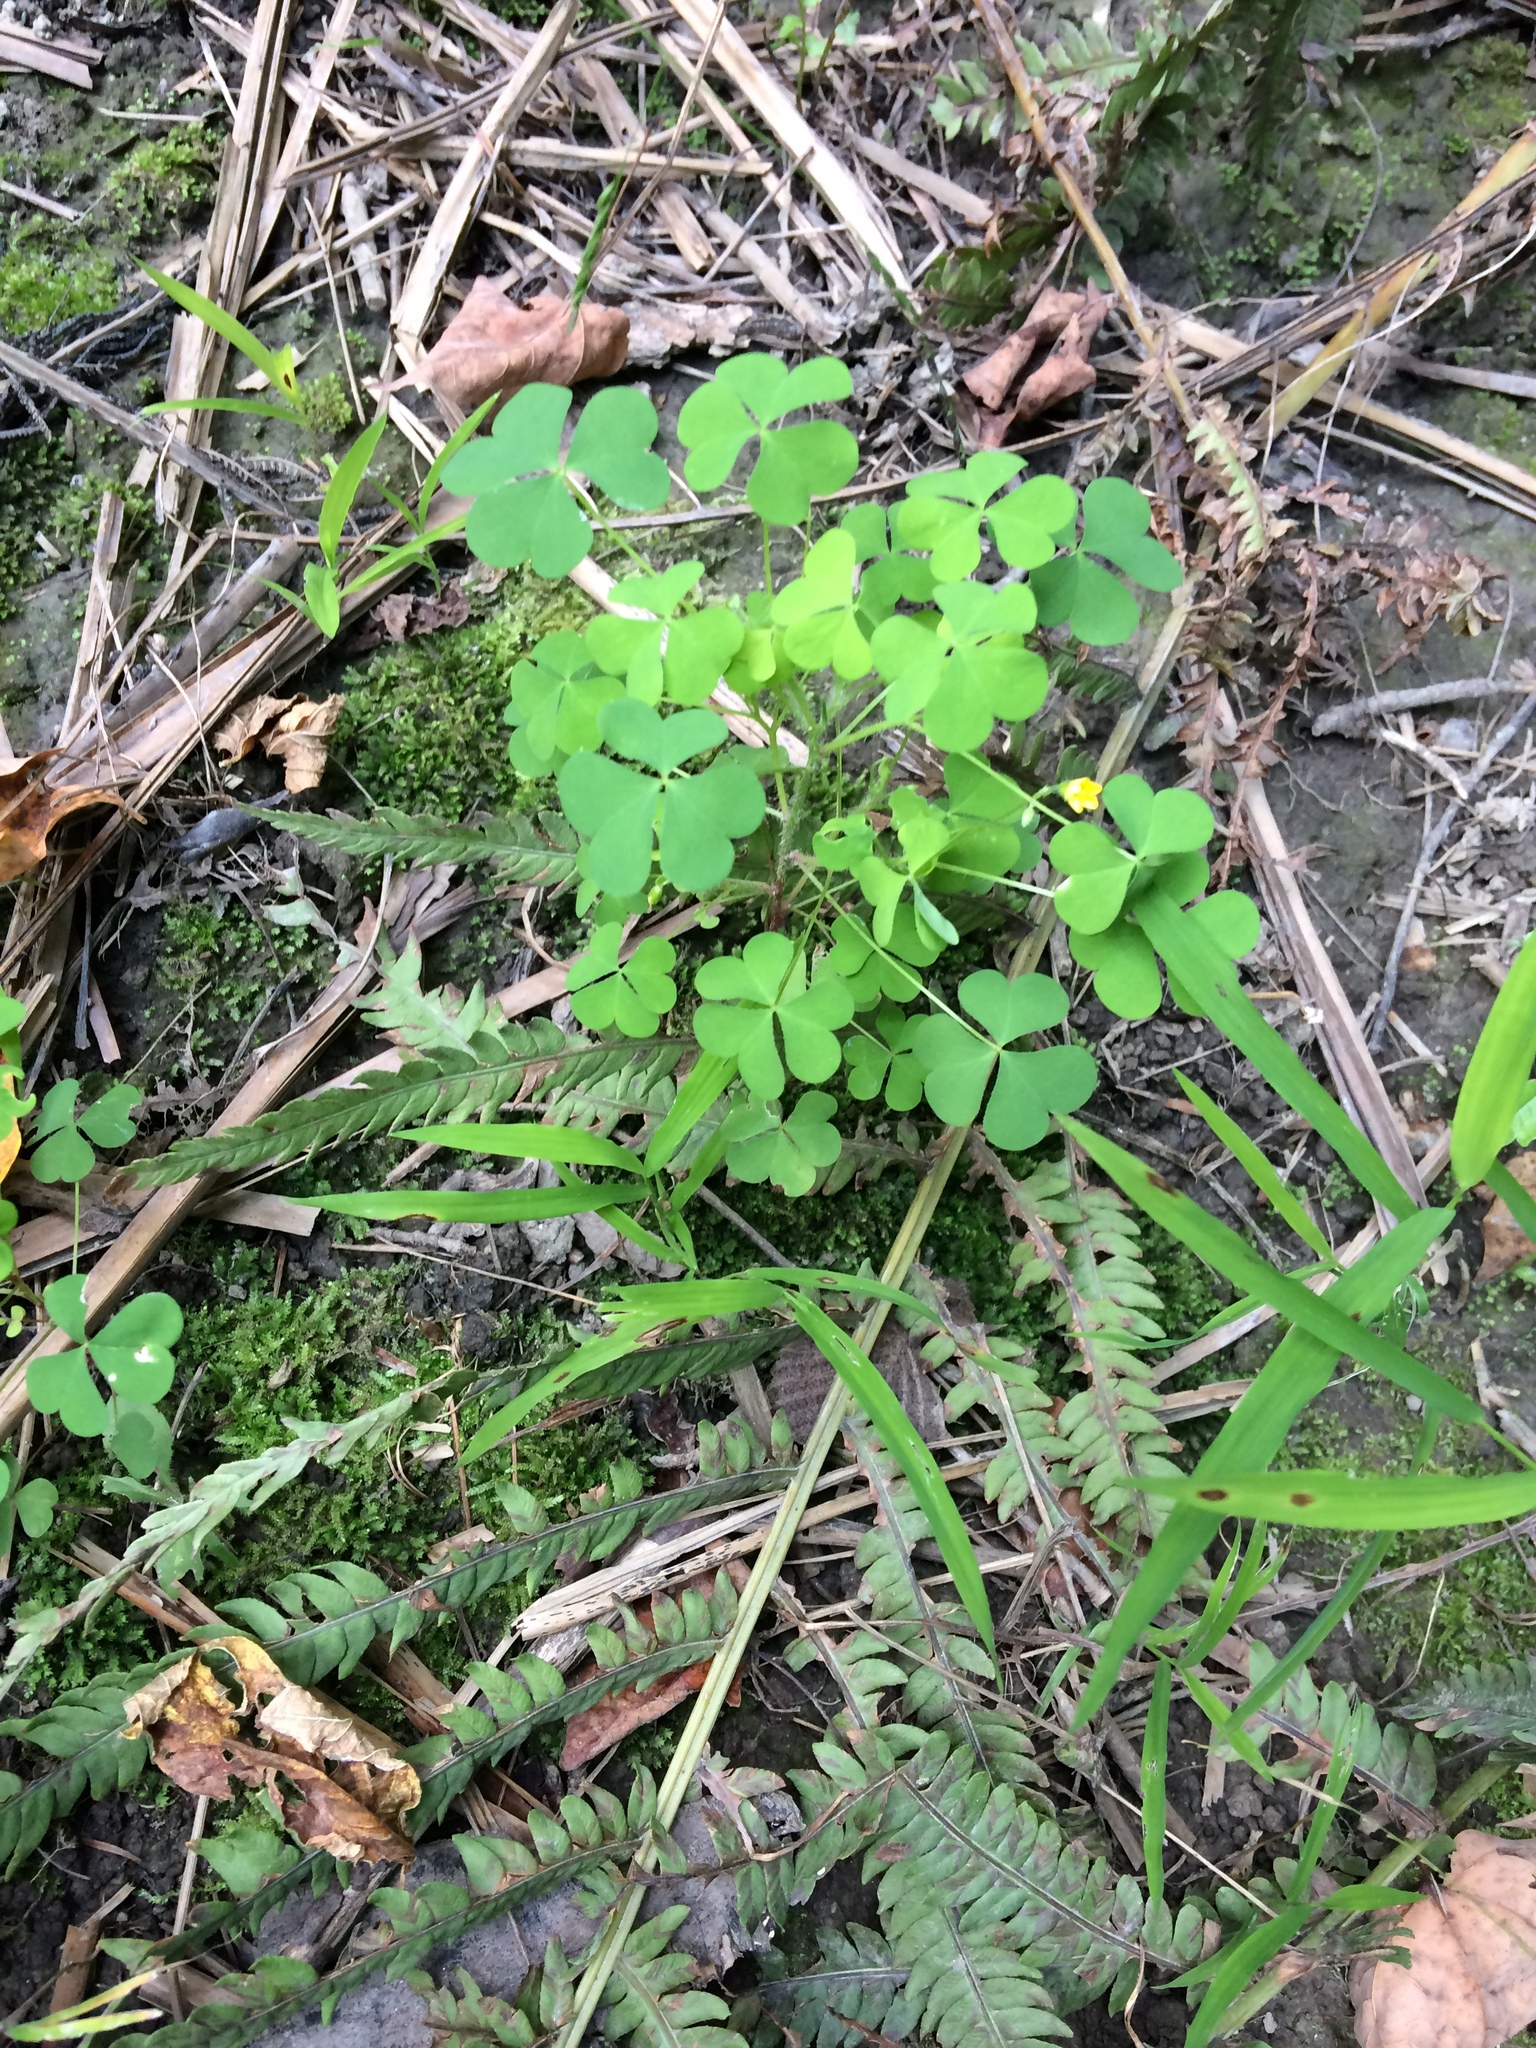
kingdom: Plantae
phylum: Tracheophyta
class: Magnoliopsida
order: Oxalidales
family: Oxalidaceae
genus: Oxalis
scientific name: Oxalis stricta
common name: Upright yellow-sorrel
